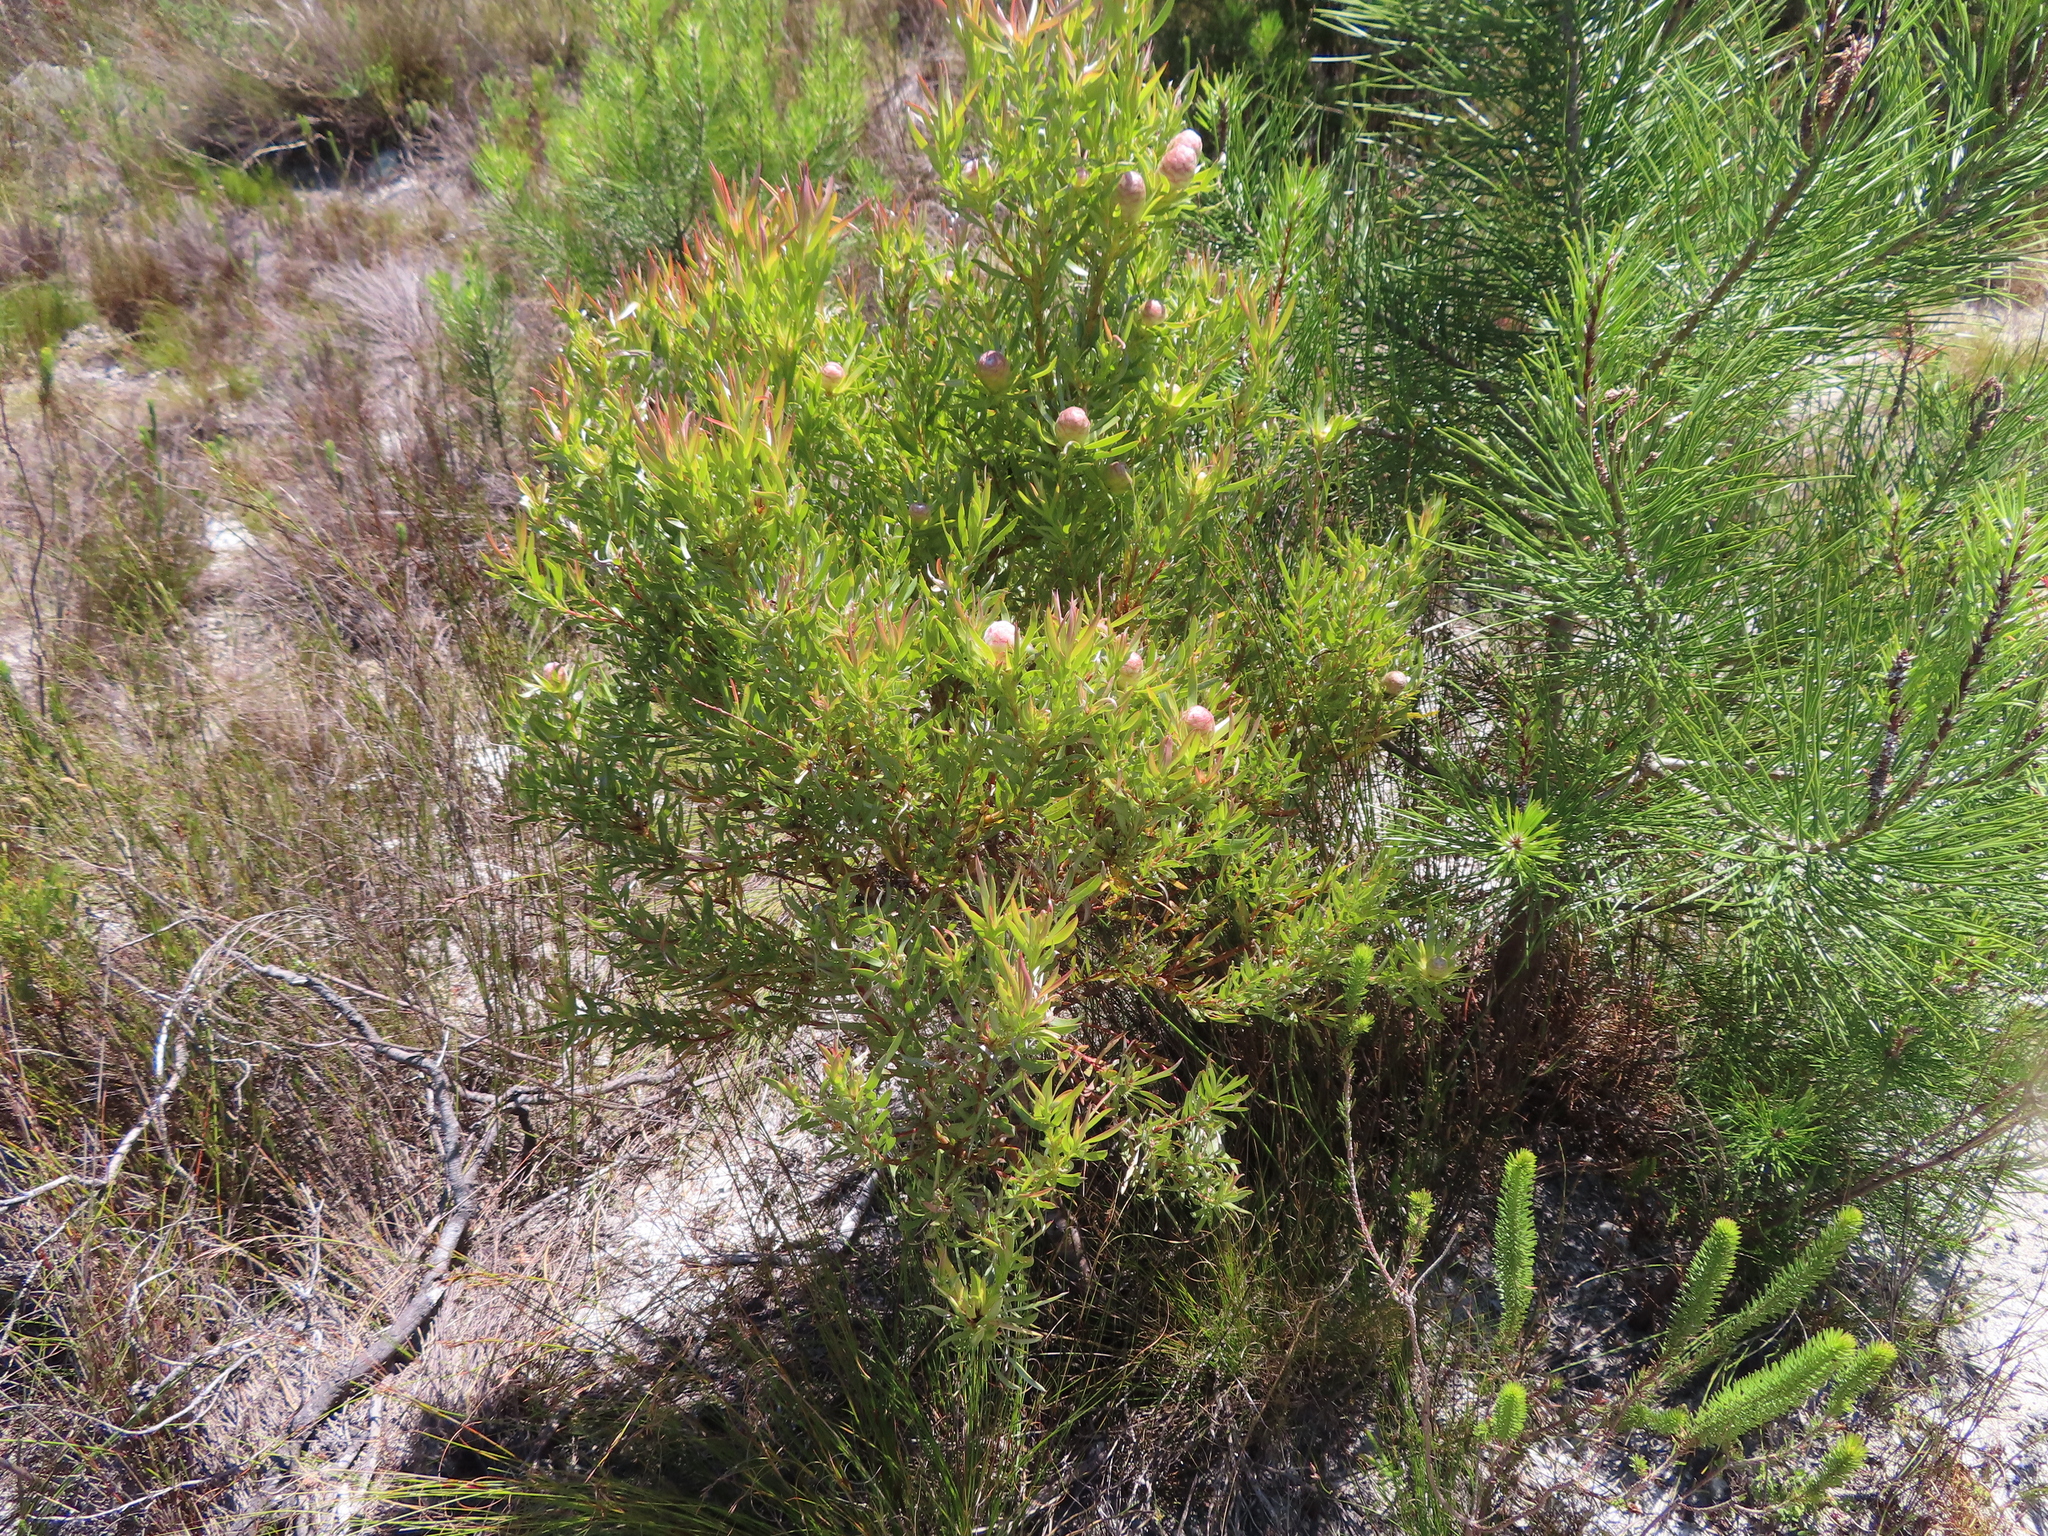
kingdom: Plantae
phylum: Tracheophyta
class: Magnoliopsida
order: Proteales
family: Proteaceae
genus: Leucadendron
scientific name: Leucadendron xanthoconus
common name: Sickle-leaf conebush
